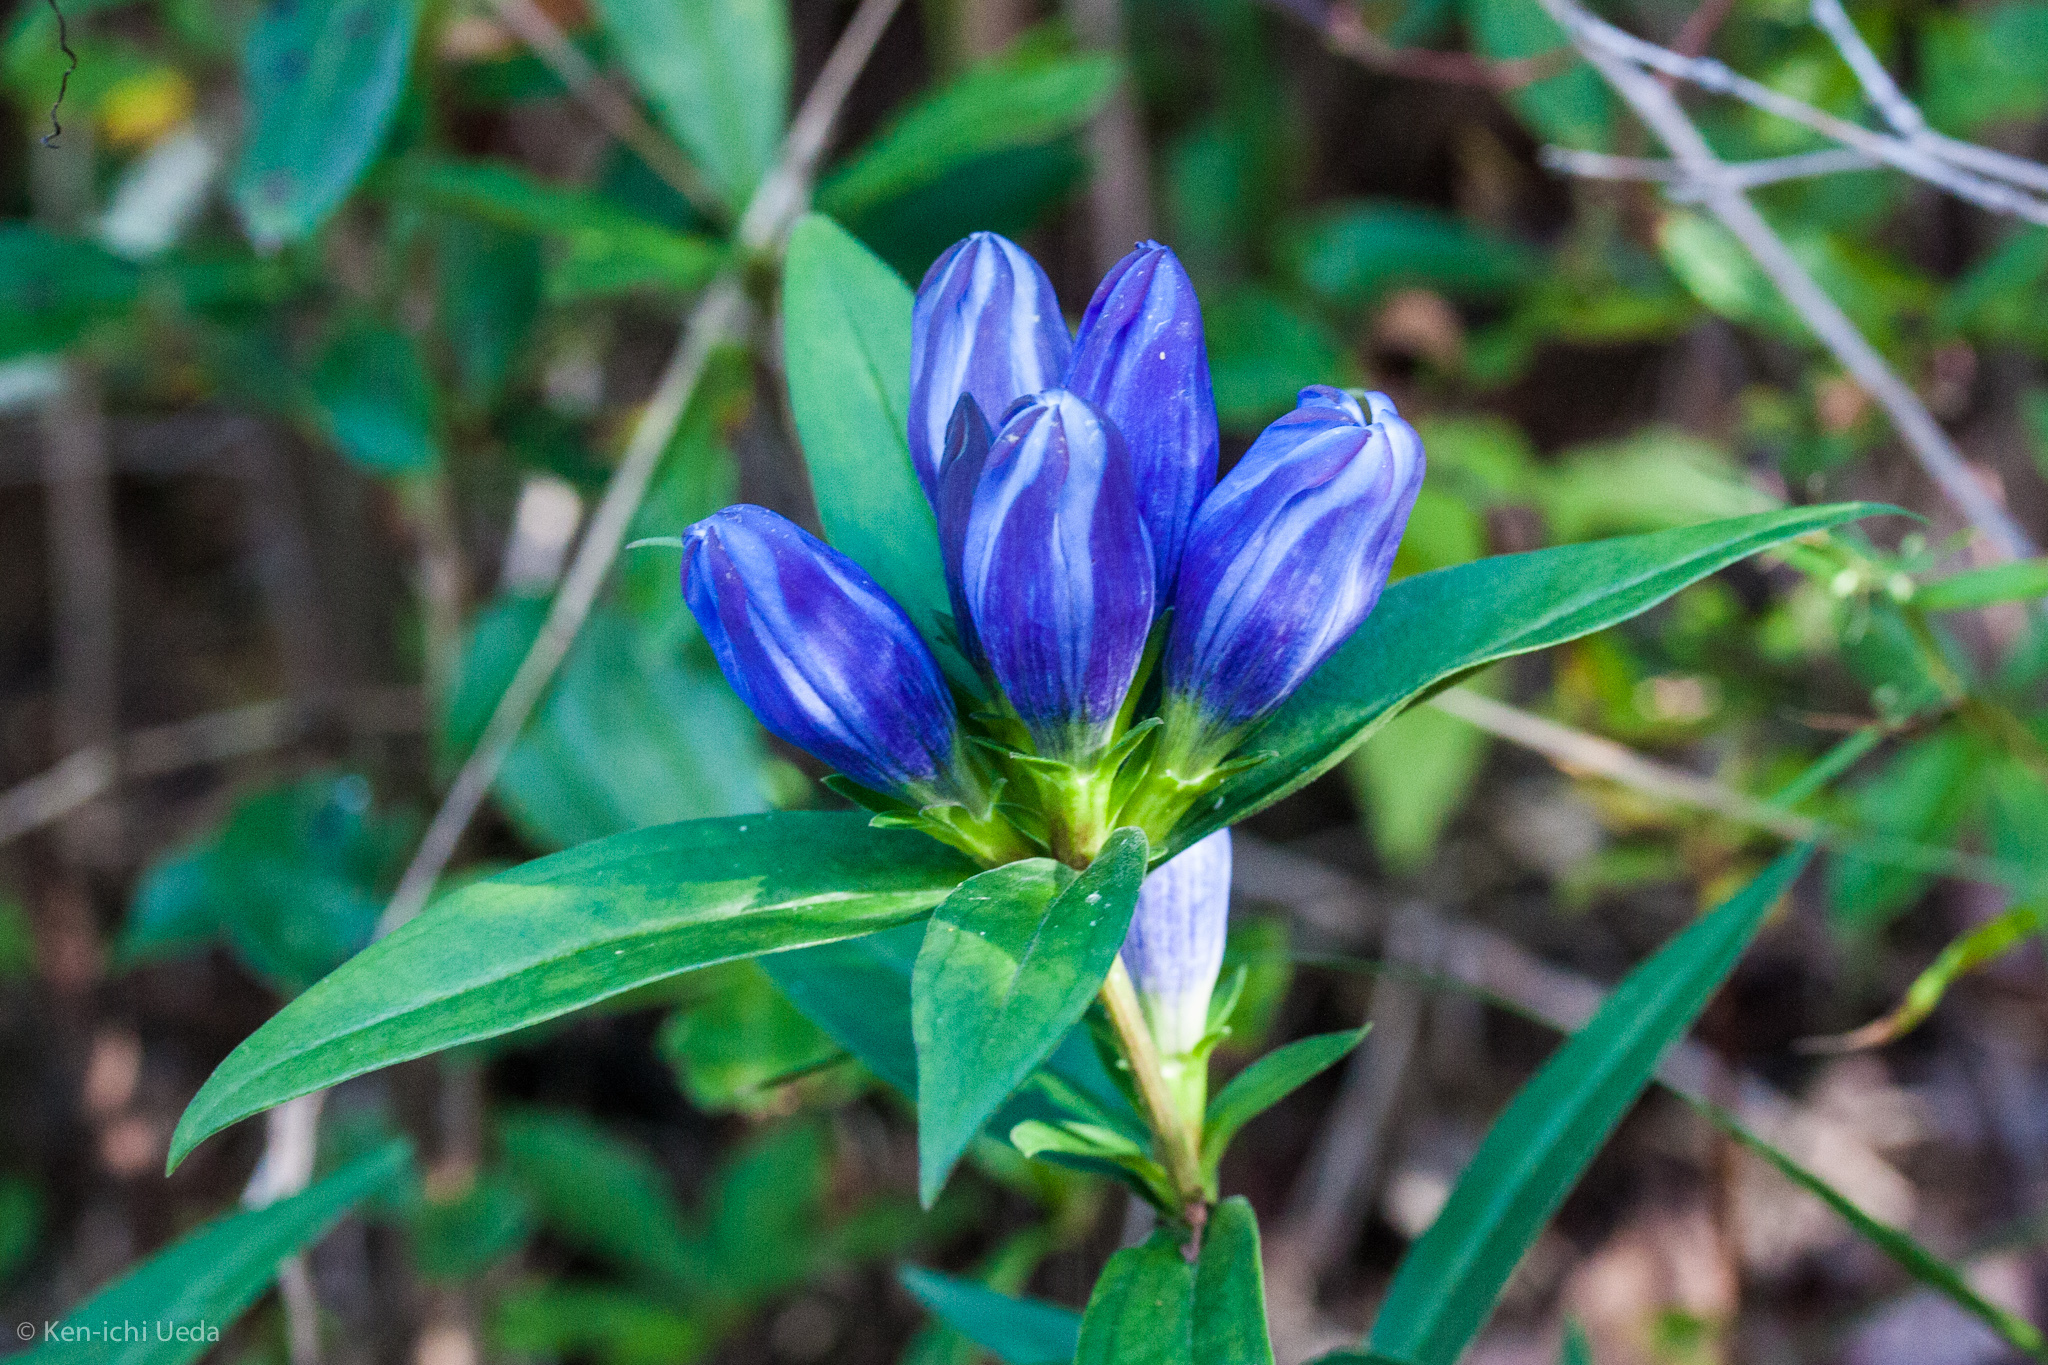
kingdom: Plantae
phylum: Tracheophyta
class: Magnoliopsida
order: Gentianales
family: Gentianaceae
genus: Gentiana
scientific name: Gentiana saponaria
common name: Soapwort gentian
